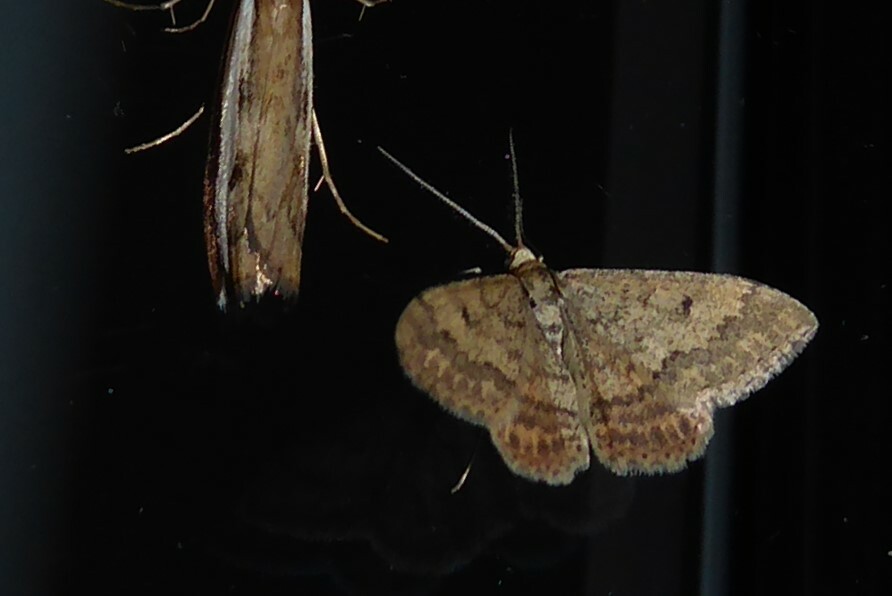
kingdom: Animalia
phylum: Arthropoda
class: Insecta
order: Lepidoptera
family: Geometridae
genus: Scopula
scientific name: Scopula rubraria
